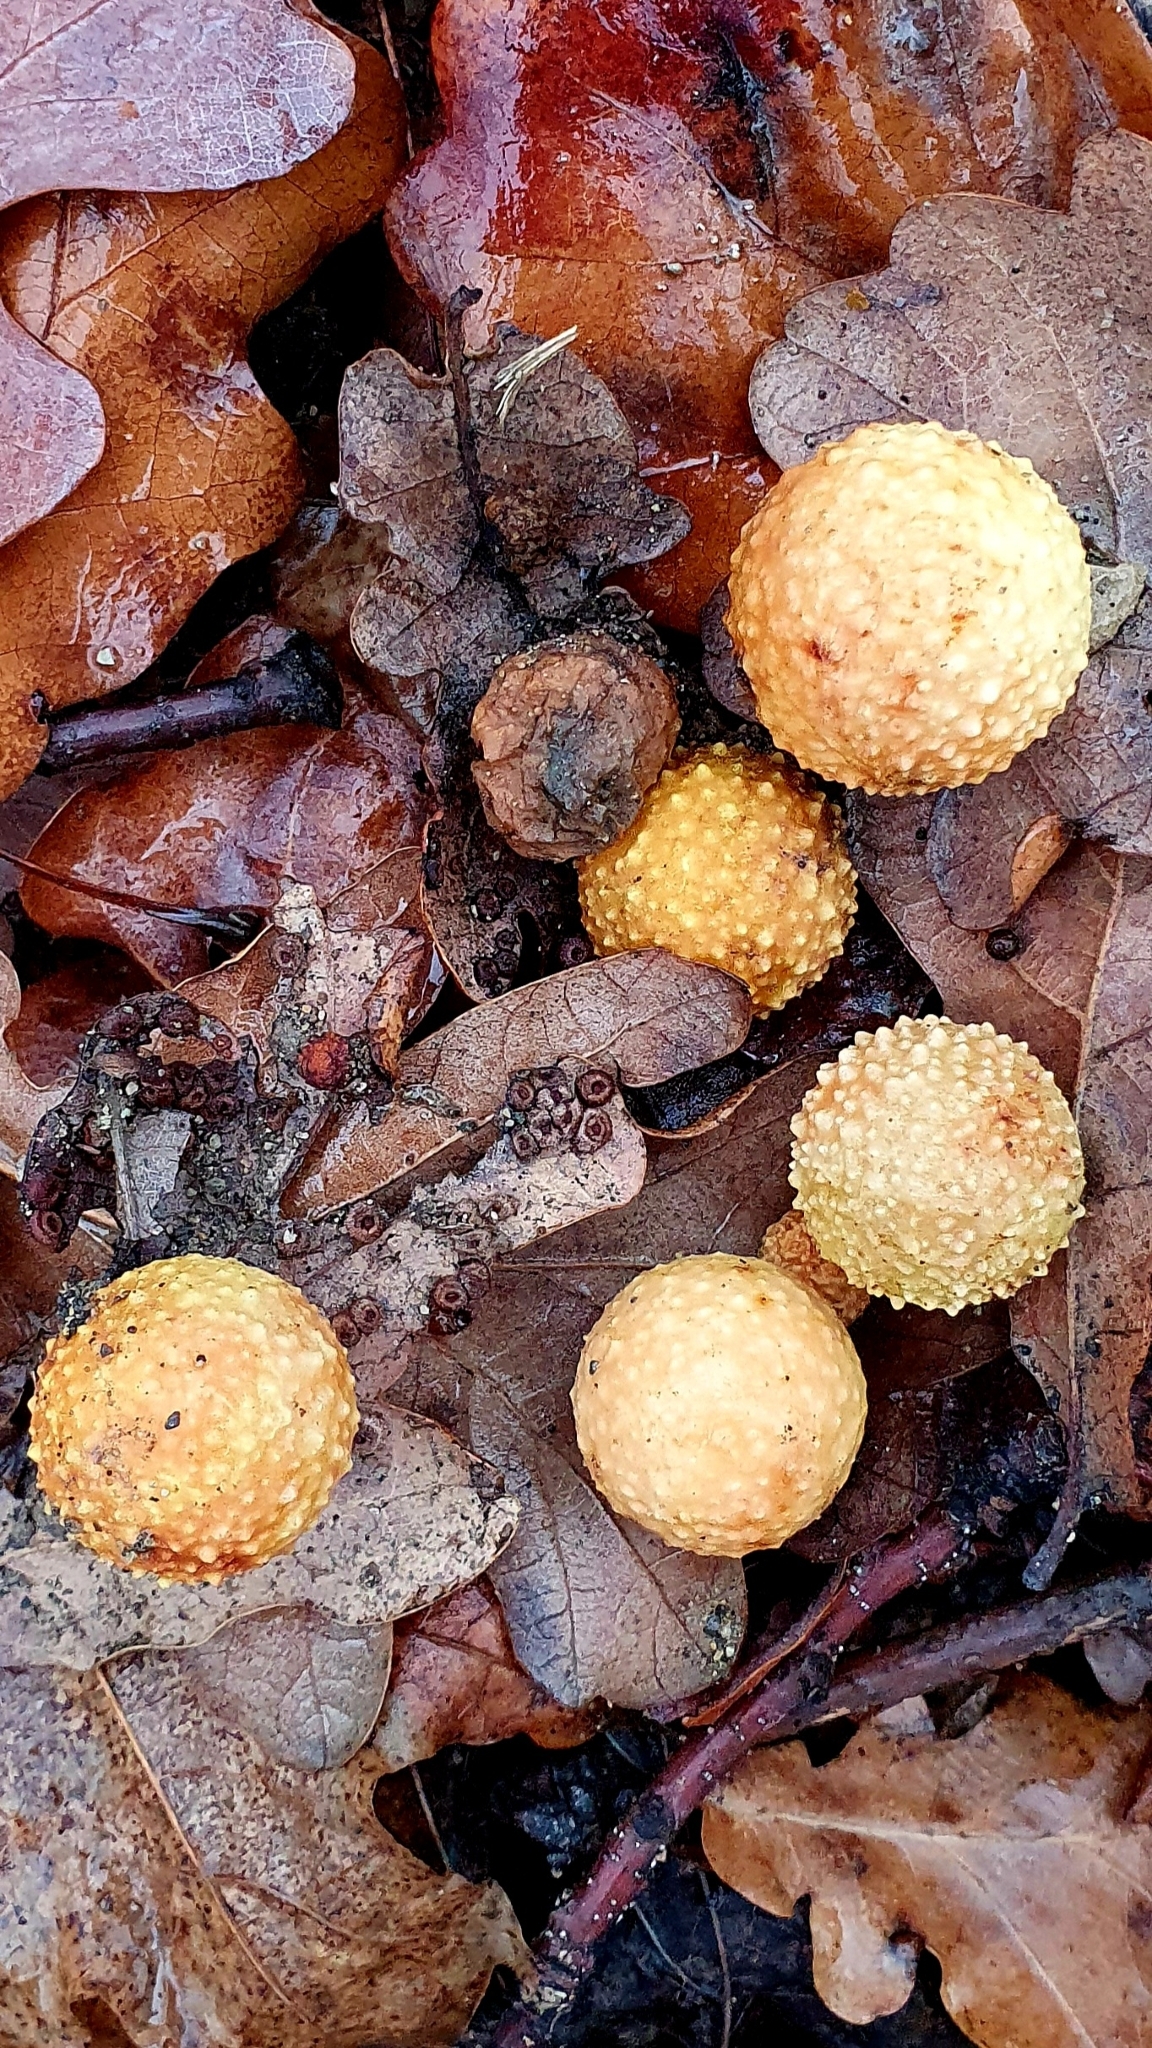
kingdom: Animalia
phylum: Arthropoda
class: Insecta
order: Hymenoptera
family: Cynipidae
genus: Cynips
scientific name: Cynips quercusfolii
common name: Cherry gall
